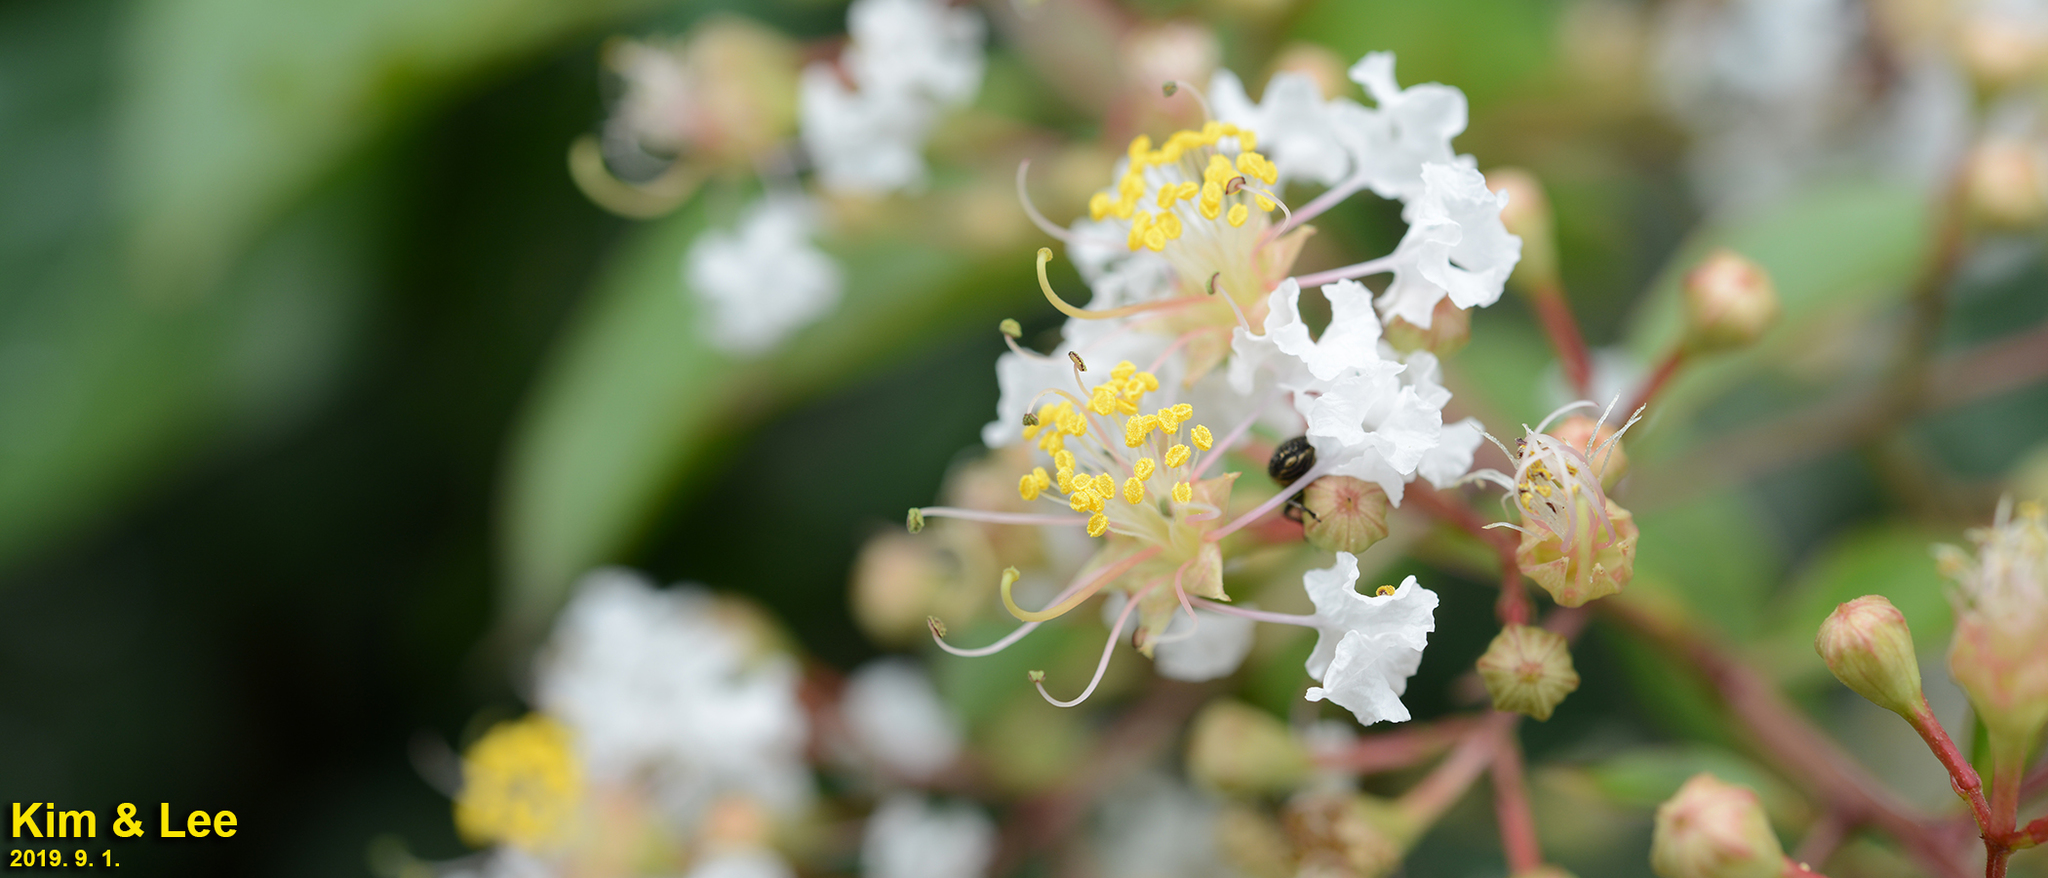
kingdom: Plantae
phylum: Tracheophyta
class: Magnoliopsida
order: Myrtales
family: Lythraceae
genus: Lagerstroemia
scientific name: Lagerstroemia indica
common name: Crape-myrtle
